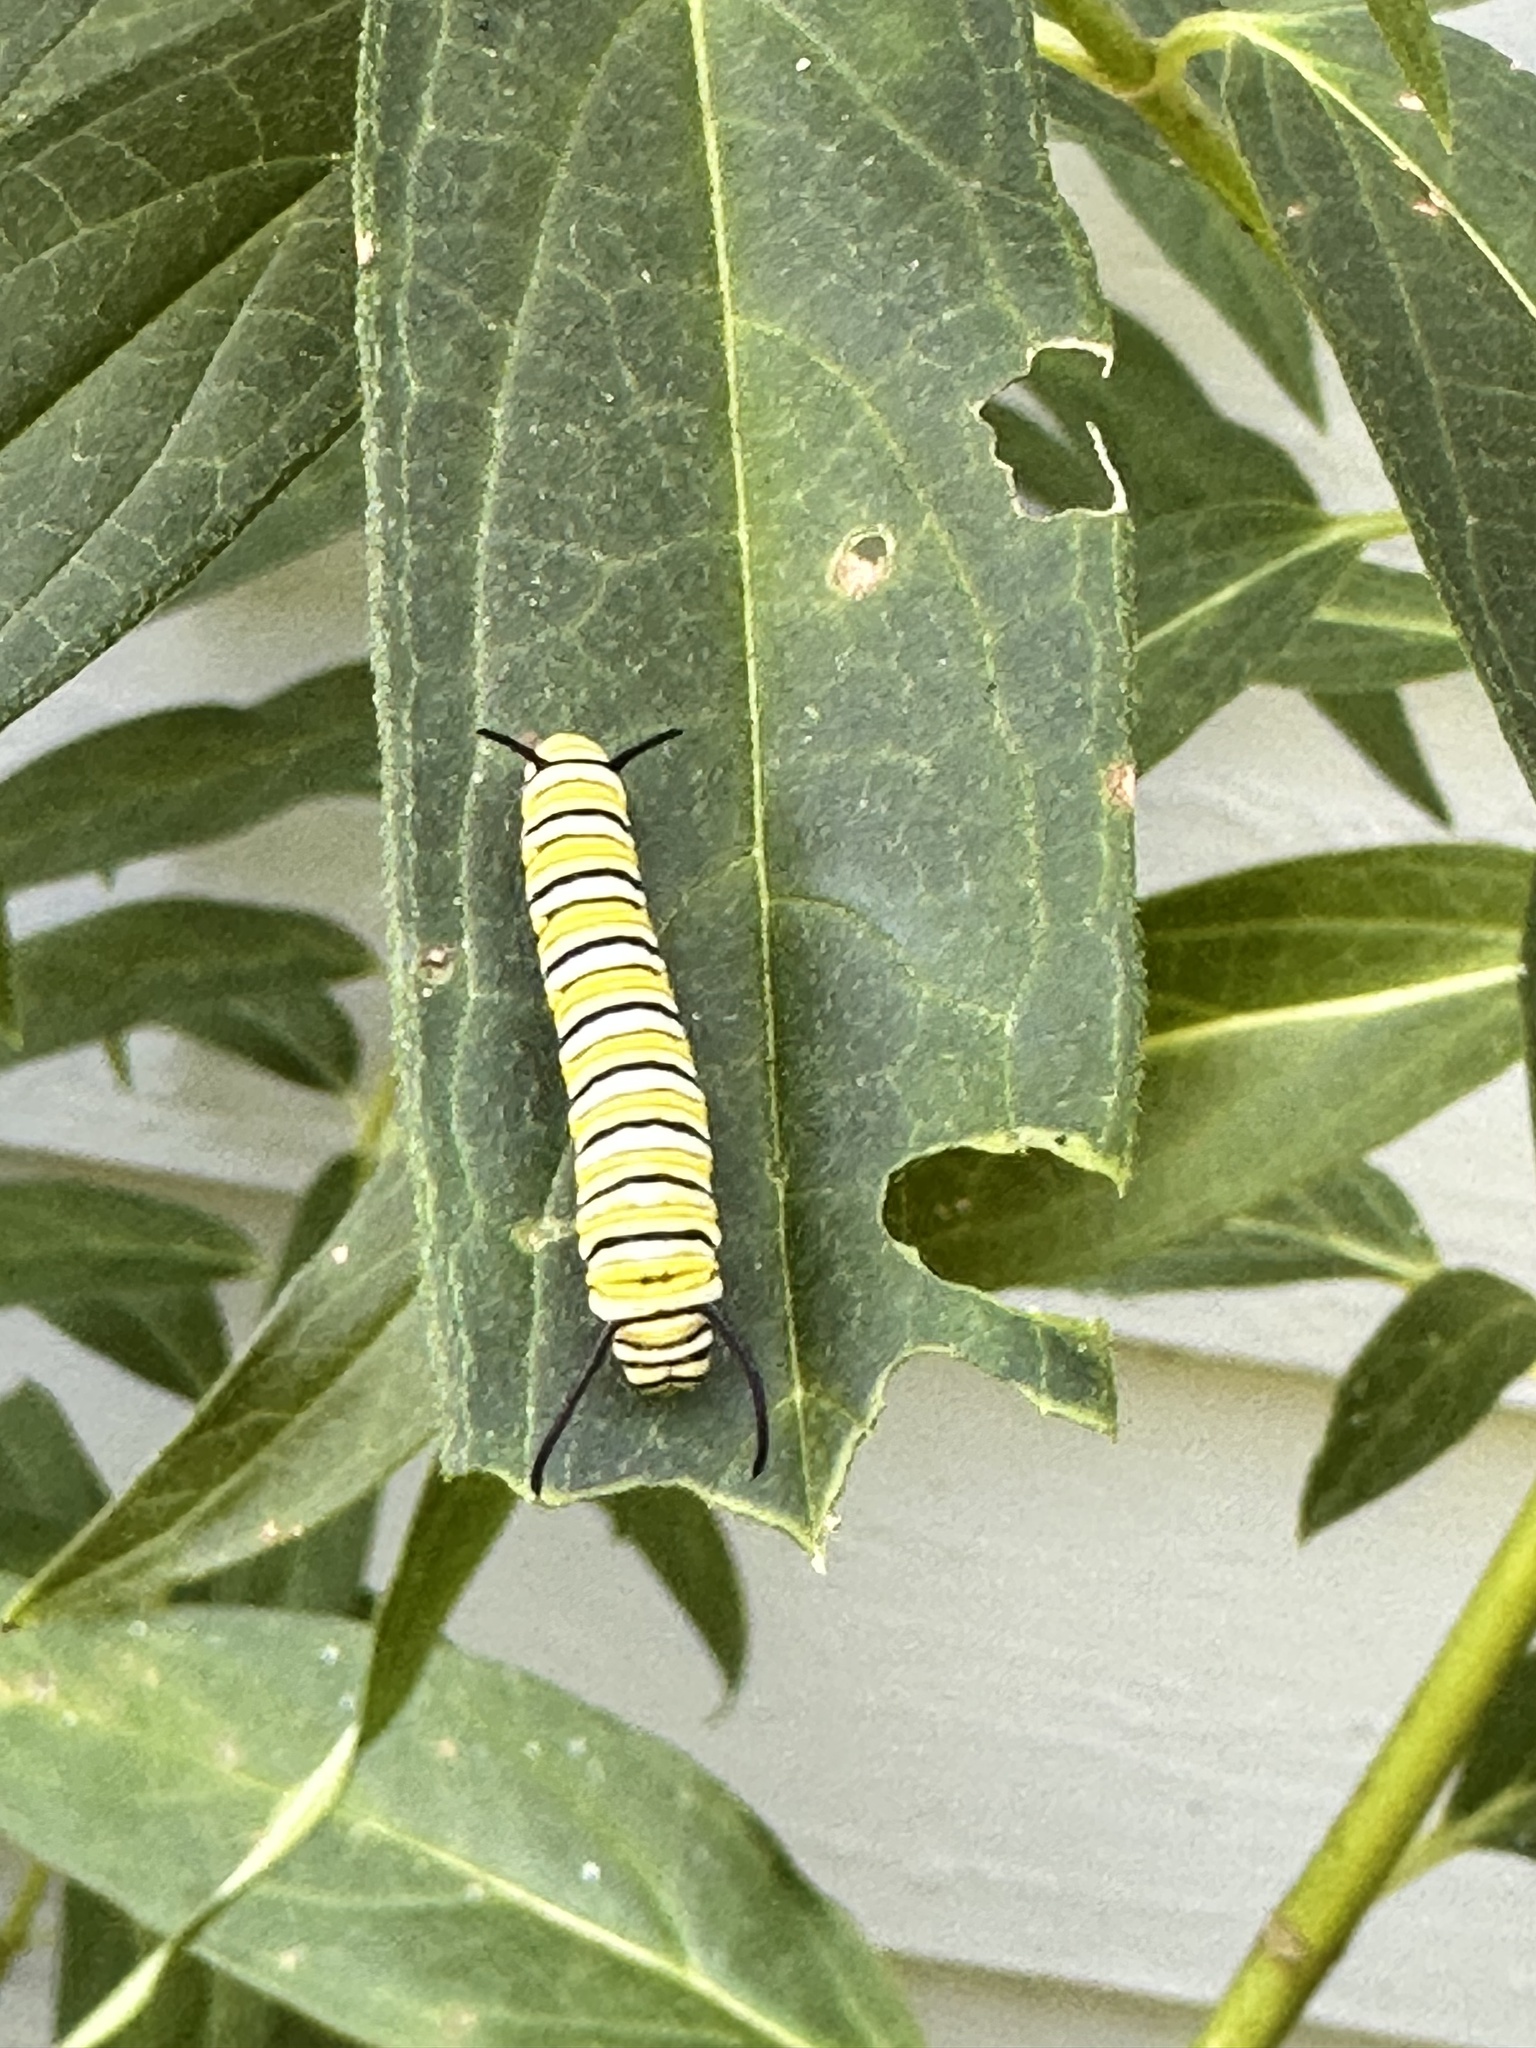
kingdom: Animalia
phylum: Arthropoda
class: Insecta
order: Lepidoptera
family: Nymphalidae
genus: Danaus
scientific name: Danaus plexippus
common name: Monarch
